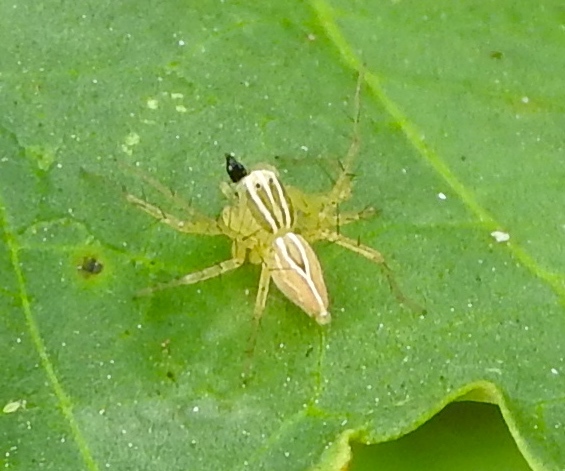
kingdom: Animalia
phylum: Arthropoda
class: Arachnida
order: Araneae
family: Oxyopidae
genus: Oxyopes
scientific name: Oxyopes
